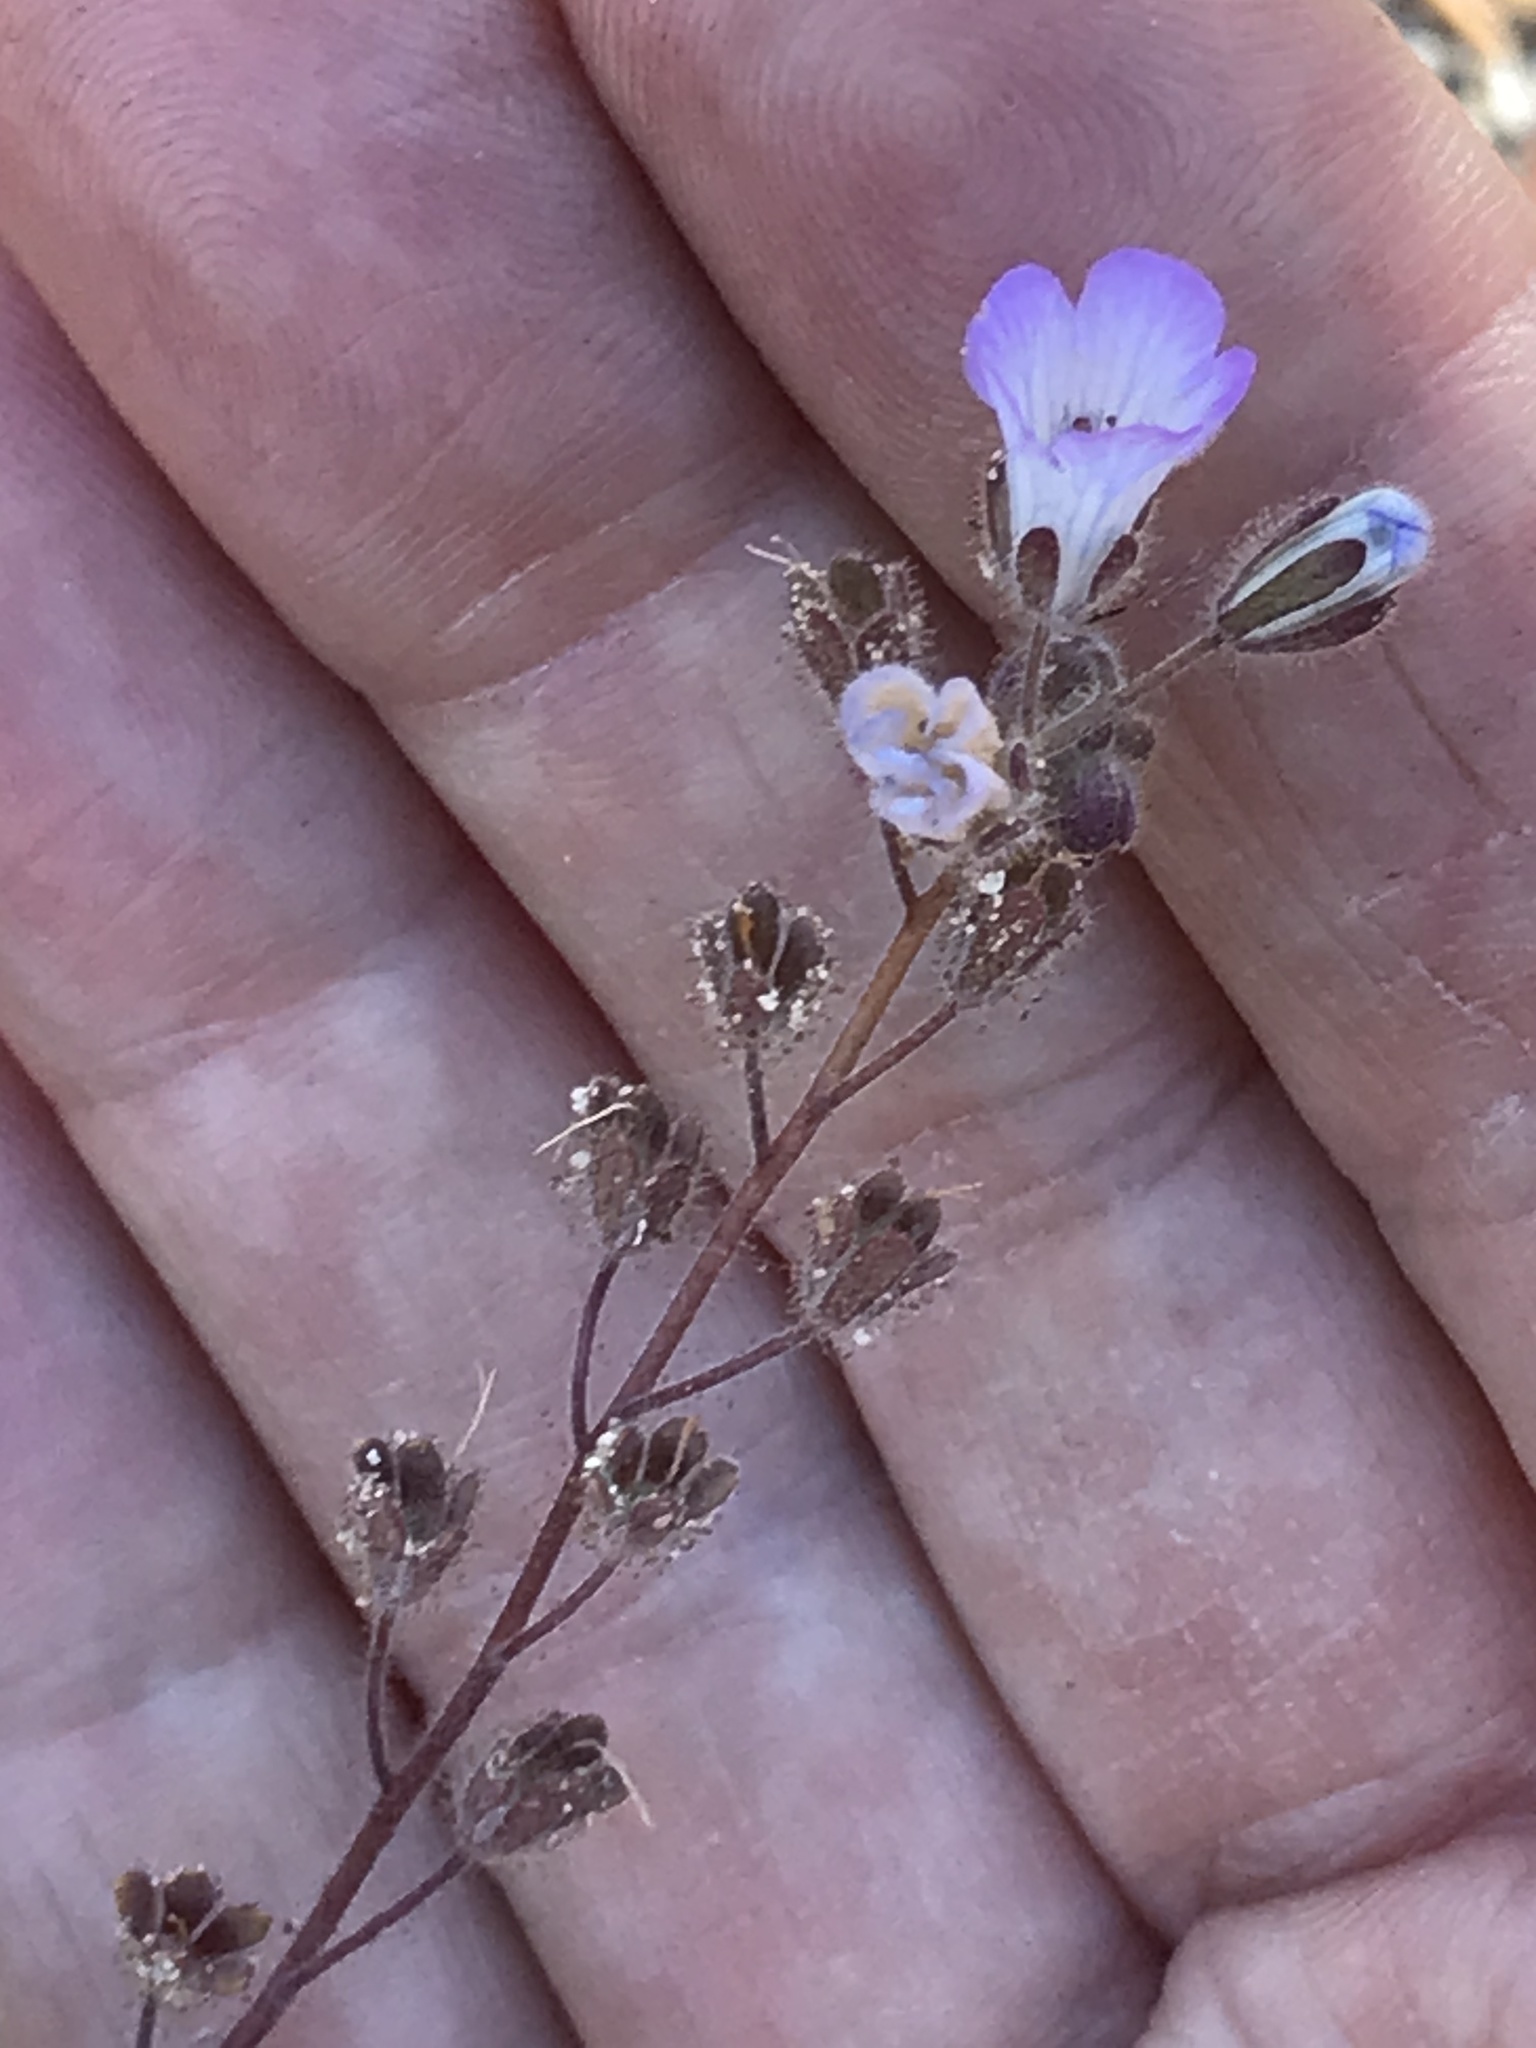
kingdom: Plantae
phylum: Tracheophyta
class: Magnoliopsida
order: Boraginales
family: Hydrophyllaceae
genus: Phacelia
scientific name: Phacelia douglasii
